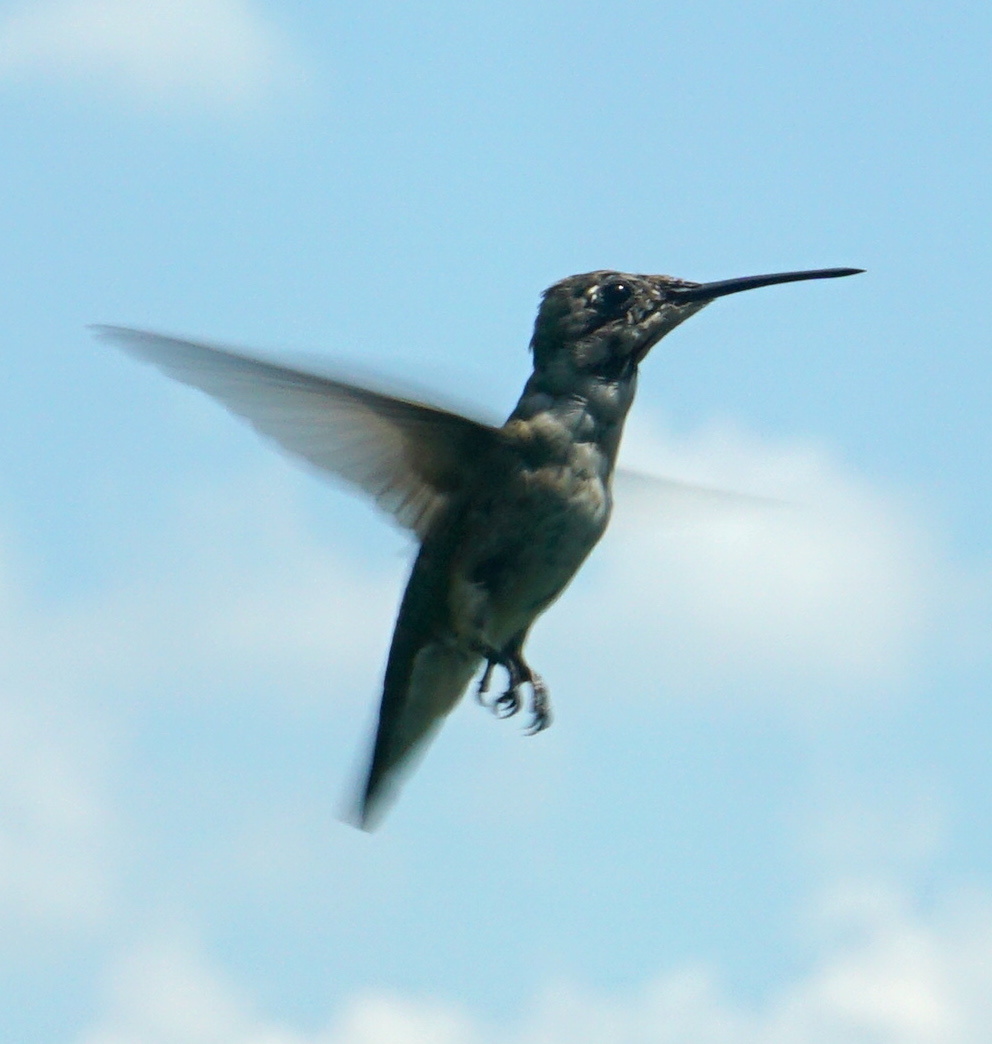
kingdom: Animalia
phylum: Chordata
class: Aves
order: Apodiformes
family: Trochilidae
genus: Archilochus
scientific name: Archilochus colubris
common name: Ruby-throated hummingbird
